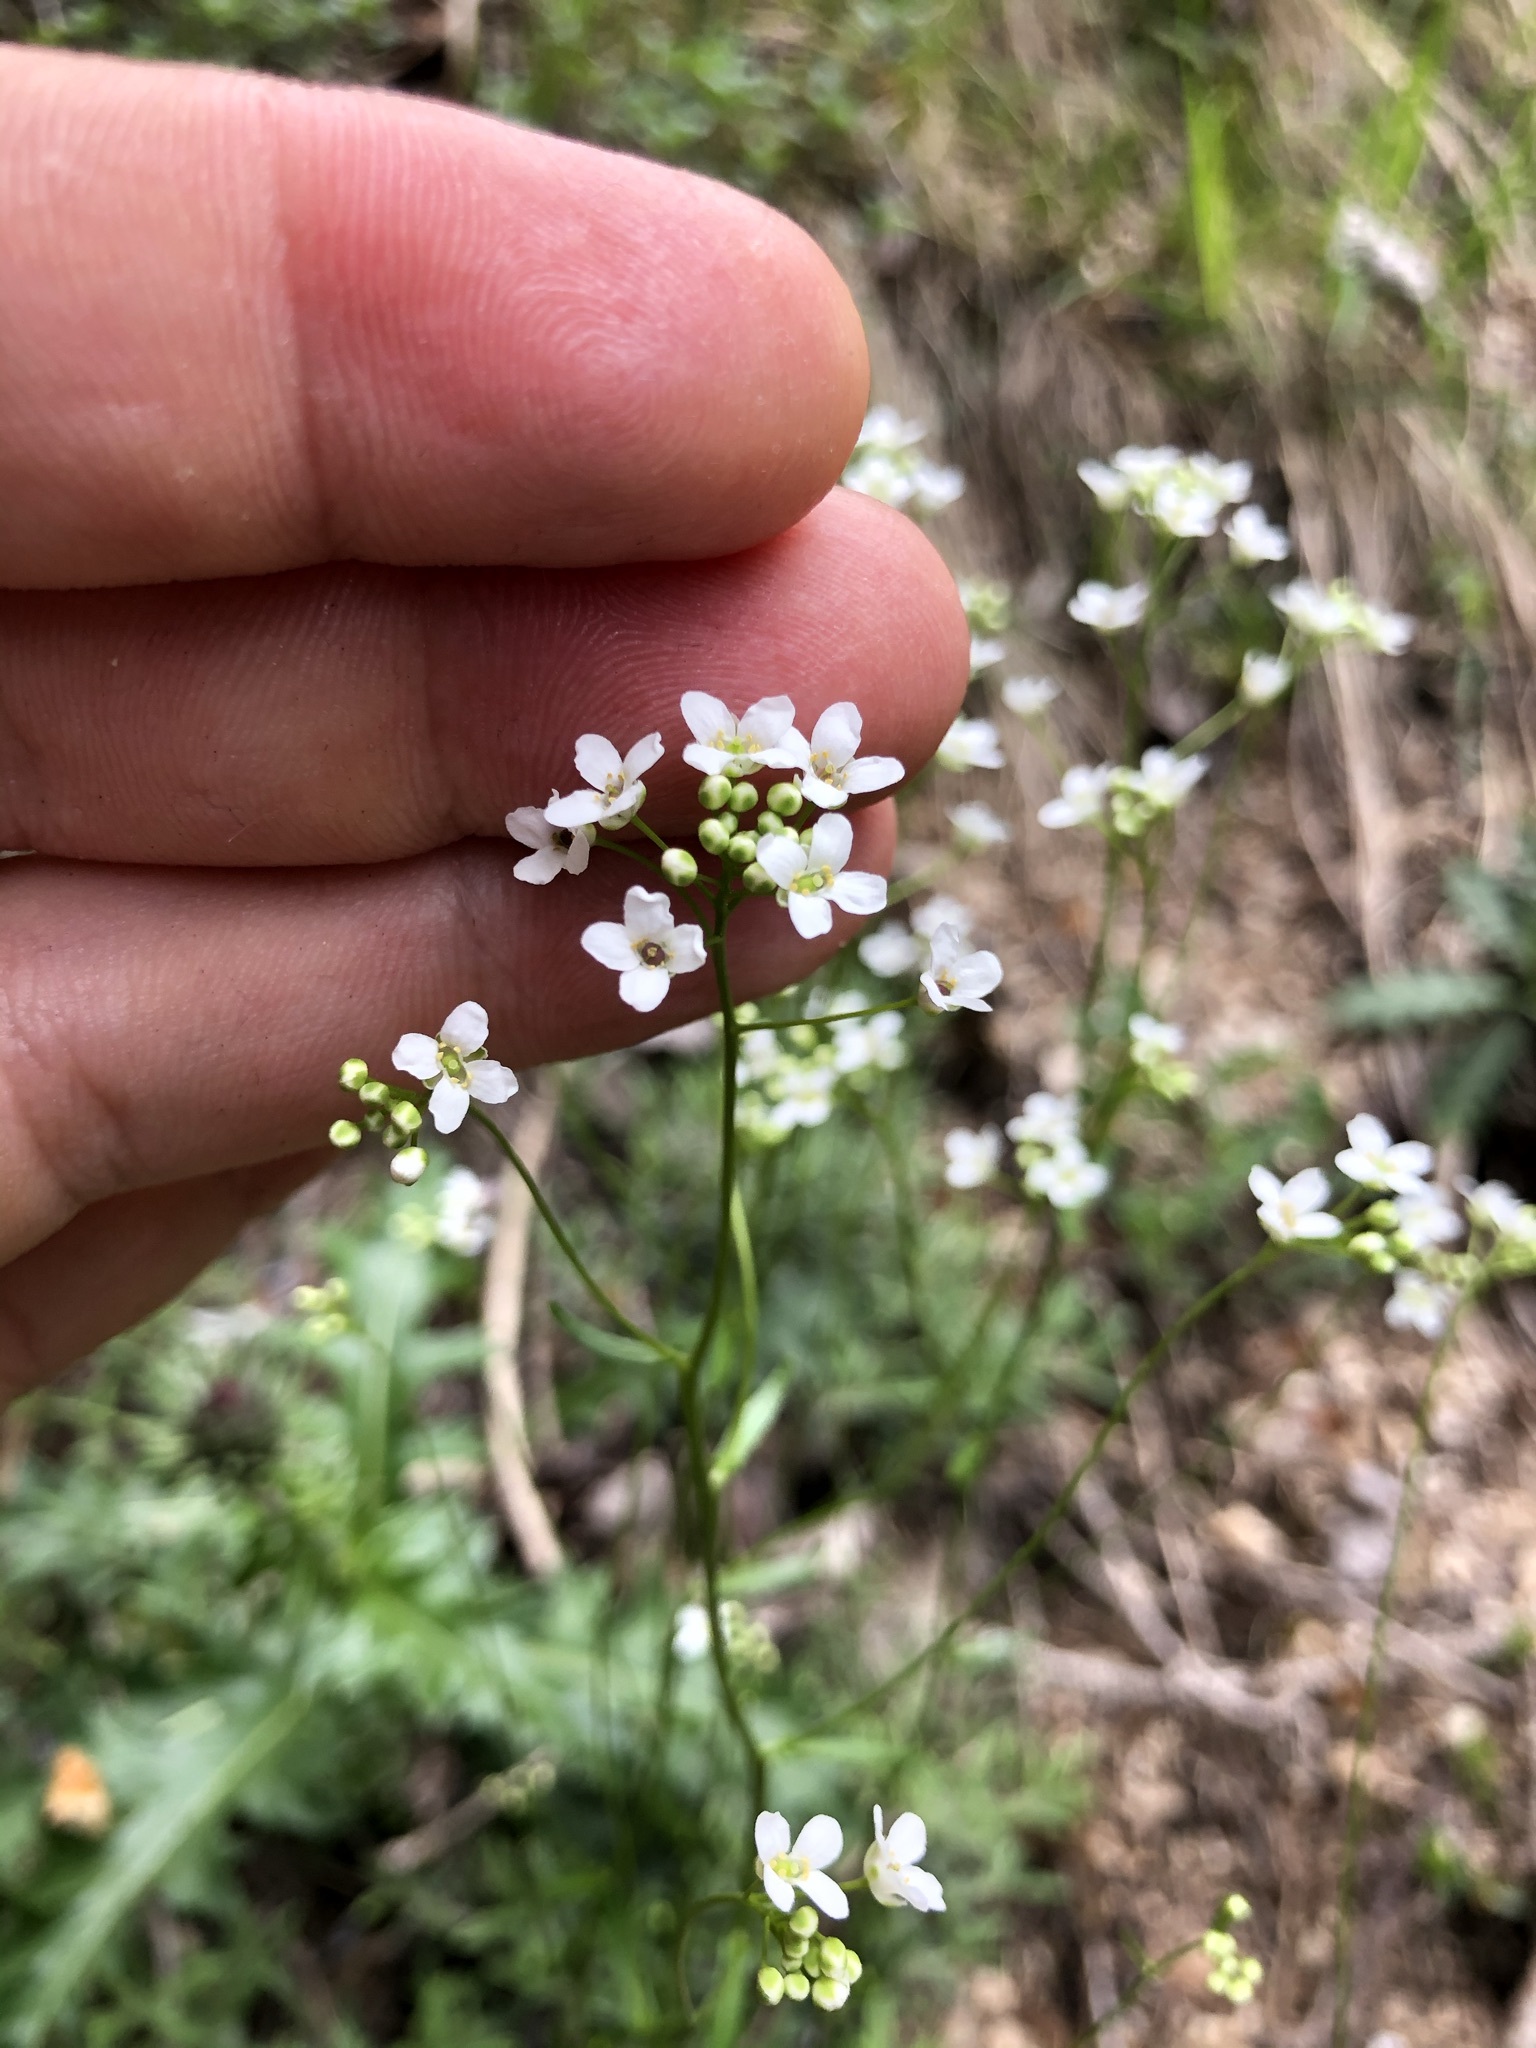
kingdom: Plantae
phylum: Tracheophyta
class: Magnoliopsida
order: Brassicales
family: Brassicaceae
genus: Kernera
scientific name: Kernera saxatilis
